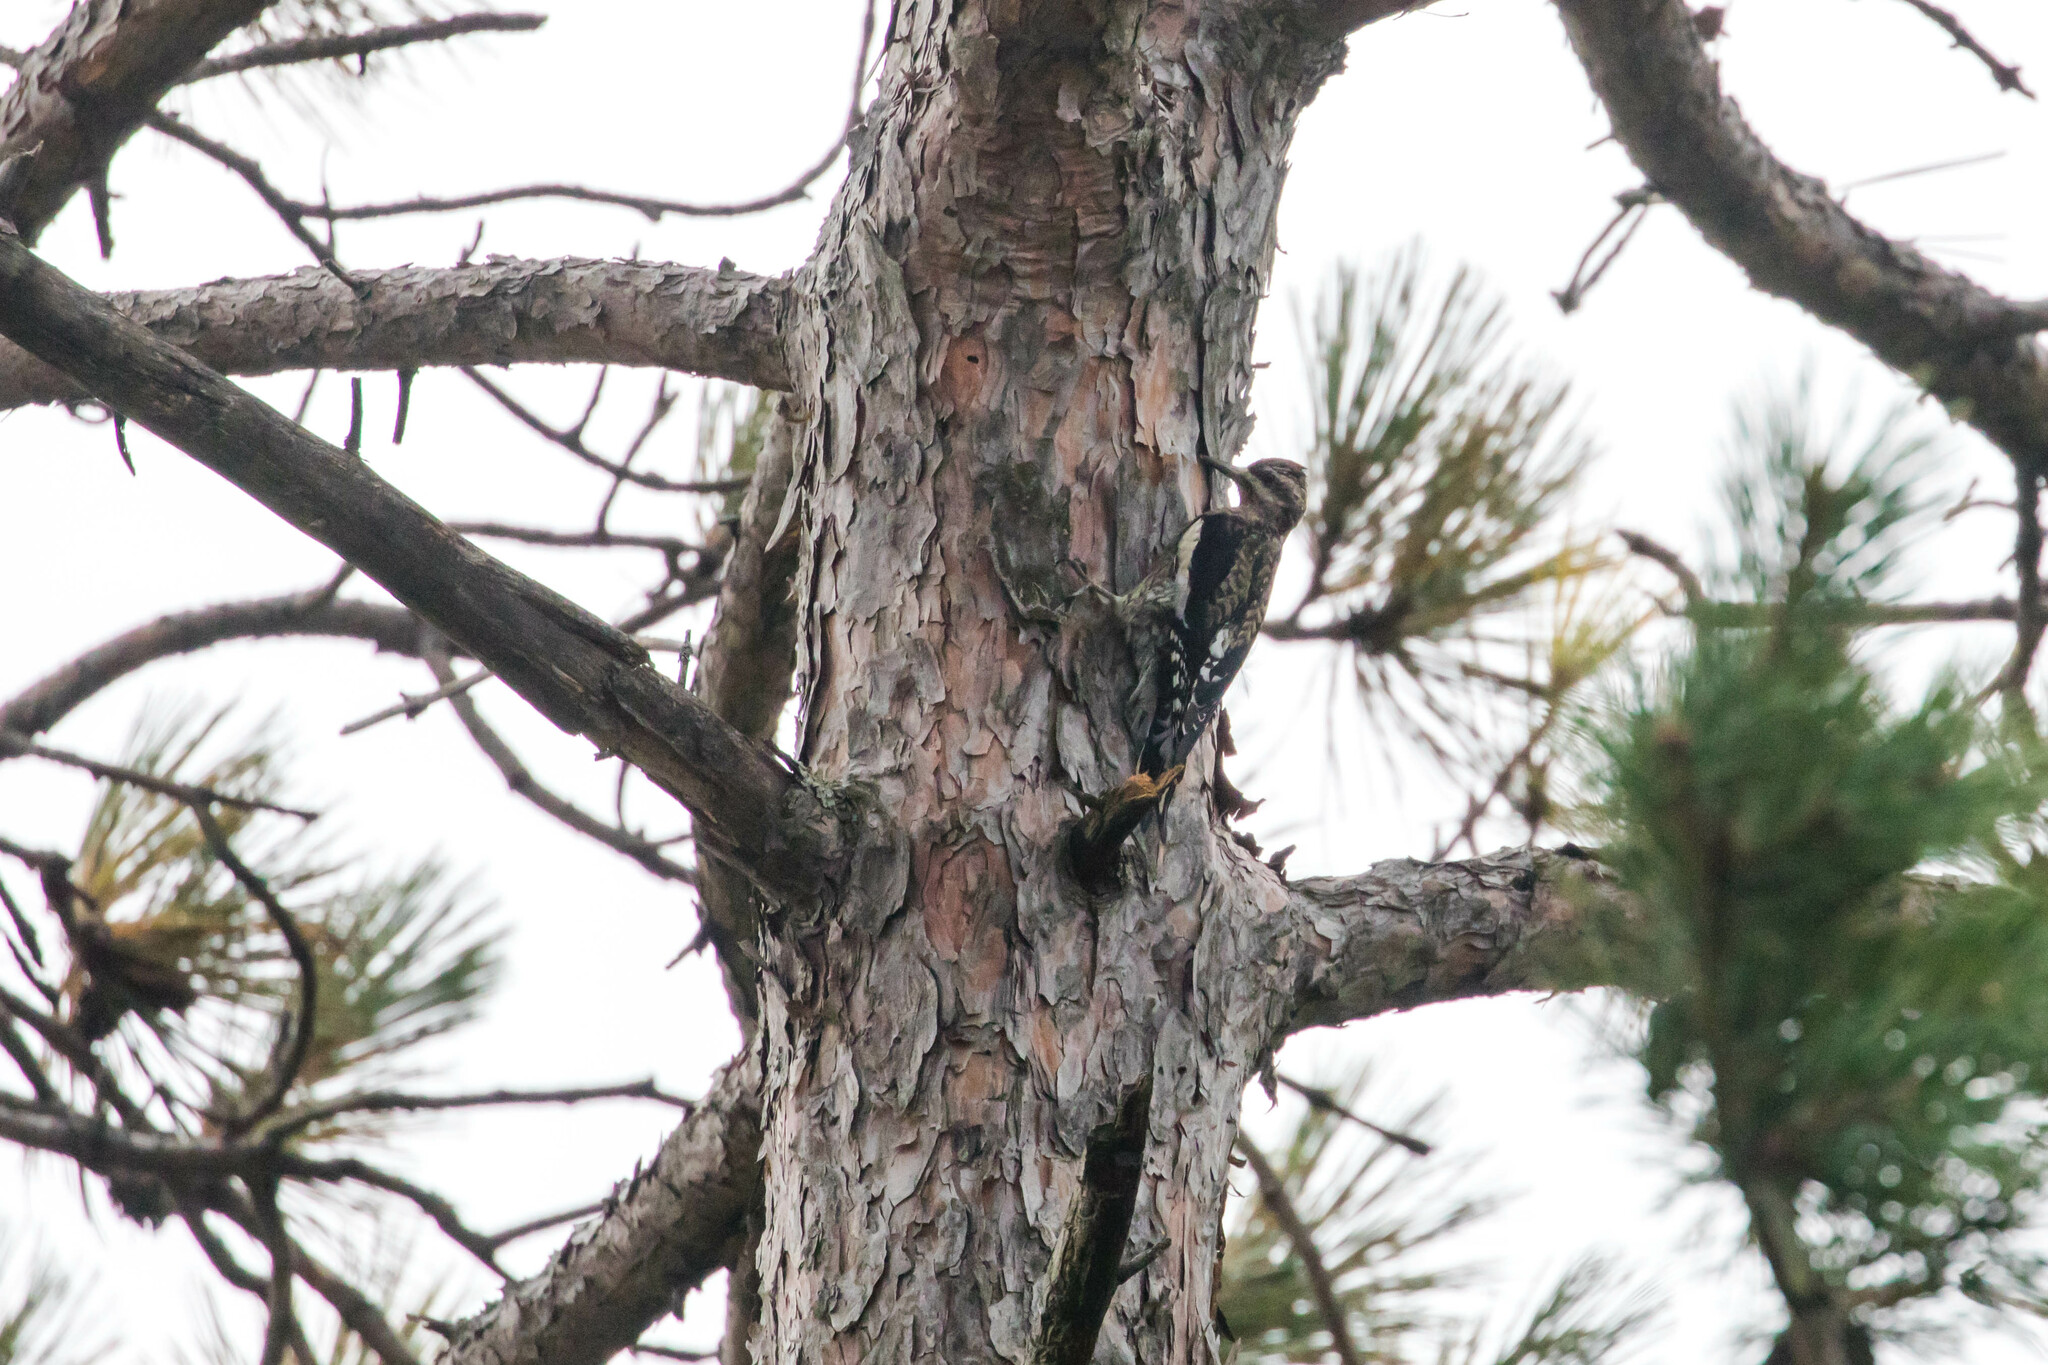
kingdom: Animalia
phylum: Chordata
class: Aves
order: Piciformes
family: Picidae
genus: Sphyrapicus
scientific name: Sphyrapicus varius
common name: Yellow-bellied sapsucker
